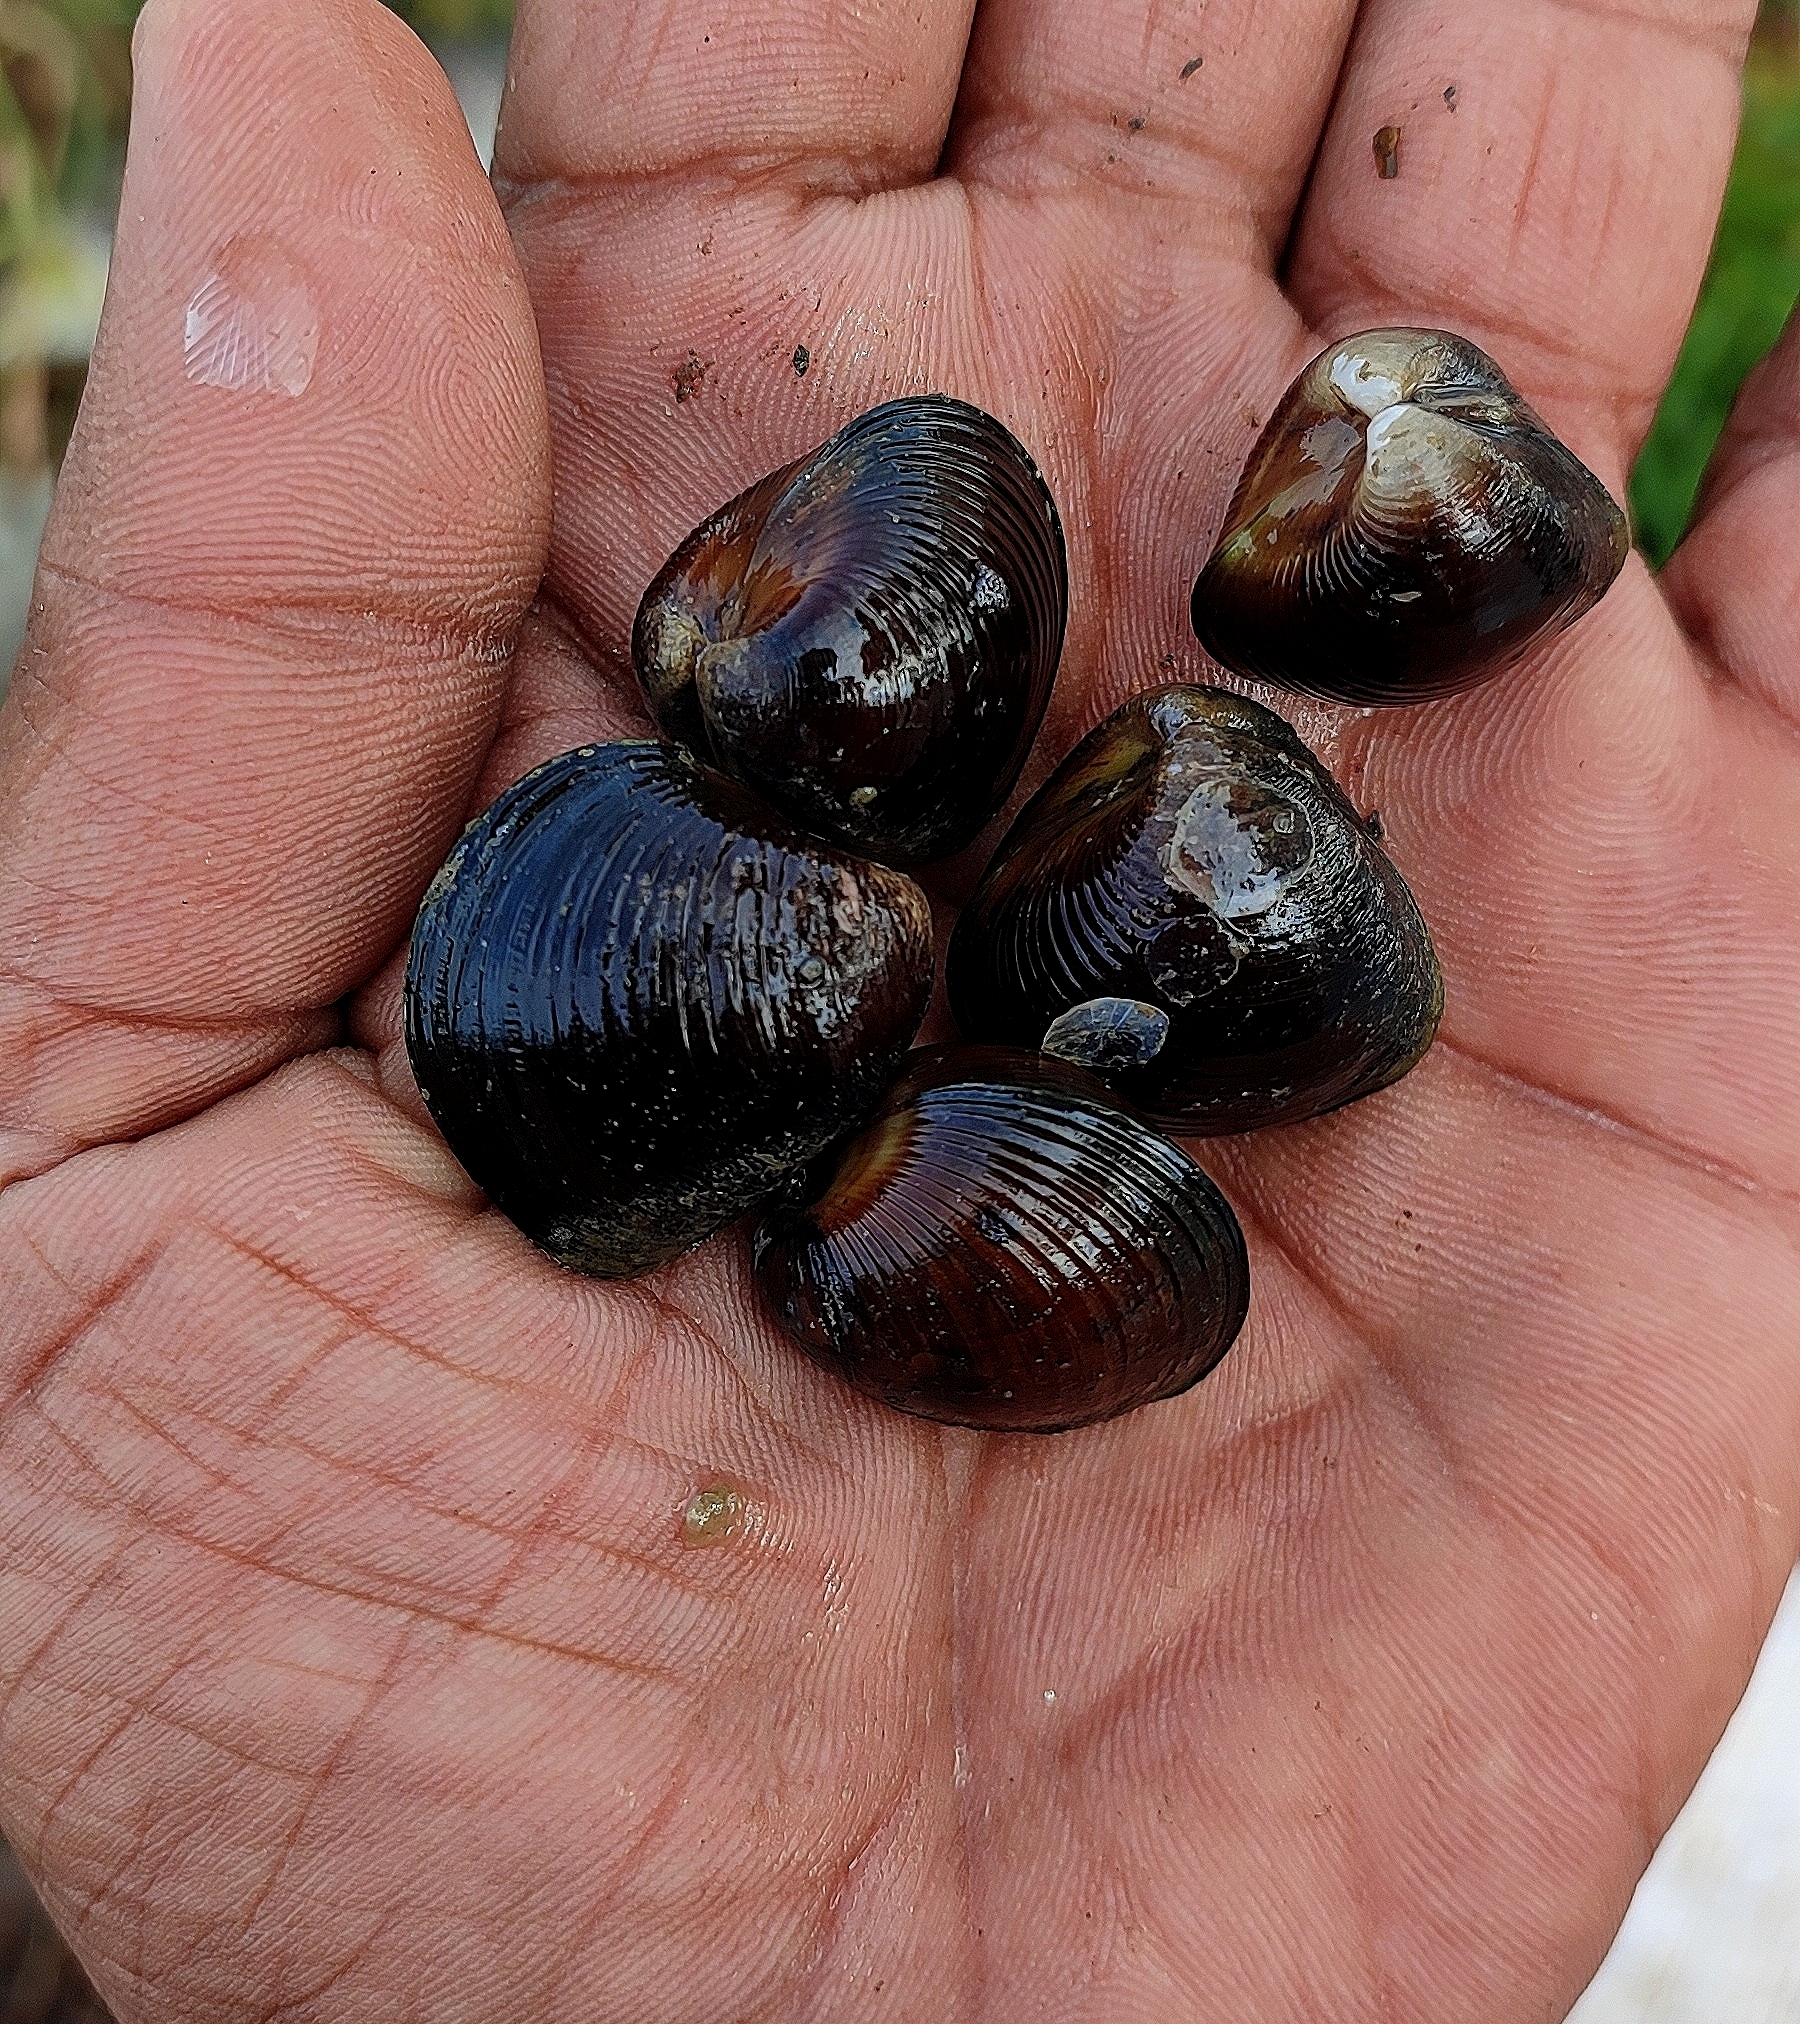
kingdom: Animalia
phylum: Mollusca
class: Bivalvia
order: Venerida
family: Cyrenidae
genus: Villorita
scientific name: Villorita cyprinoides
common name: Black clam
